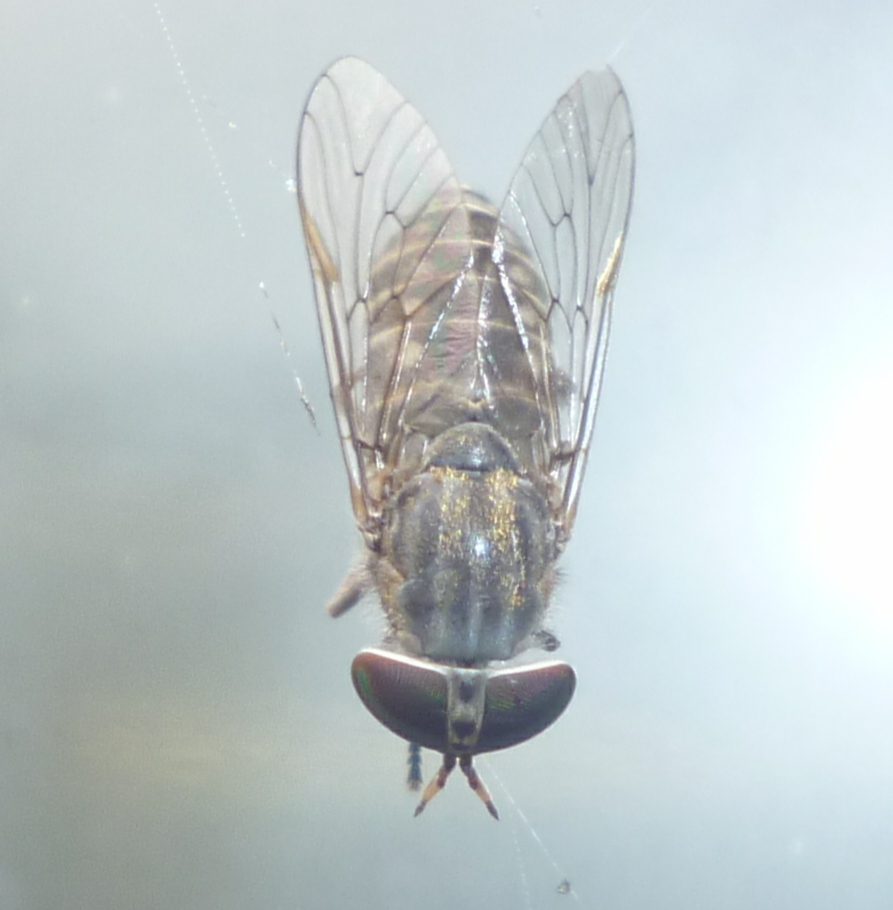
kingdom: Animalia
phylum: Arthropoda
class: Insecta
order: Diptera
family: Tabanidae
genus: Tabanus
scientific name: Tabanus pumilus
